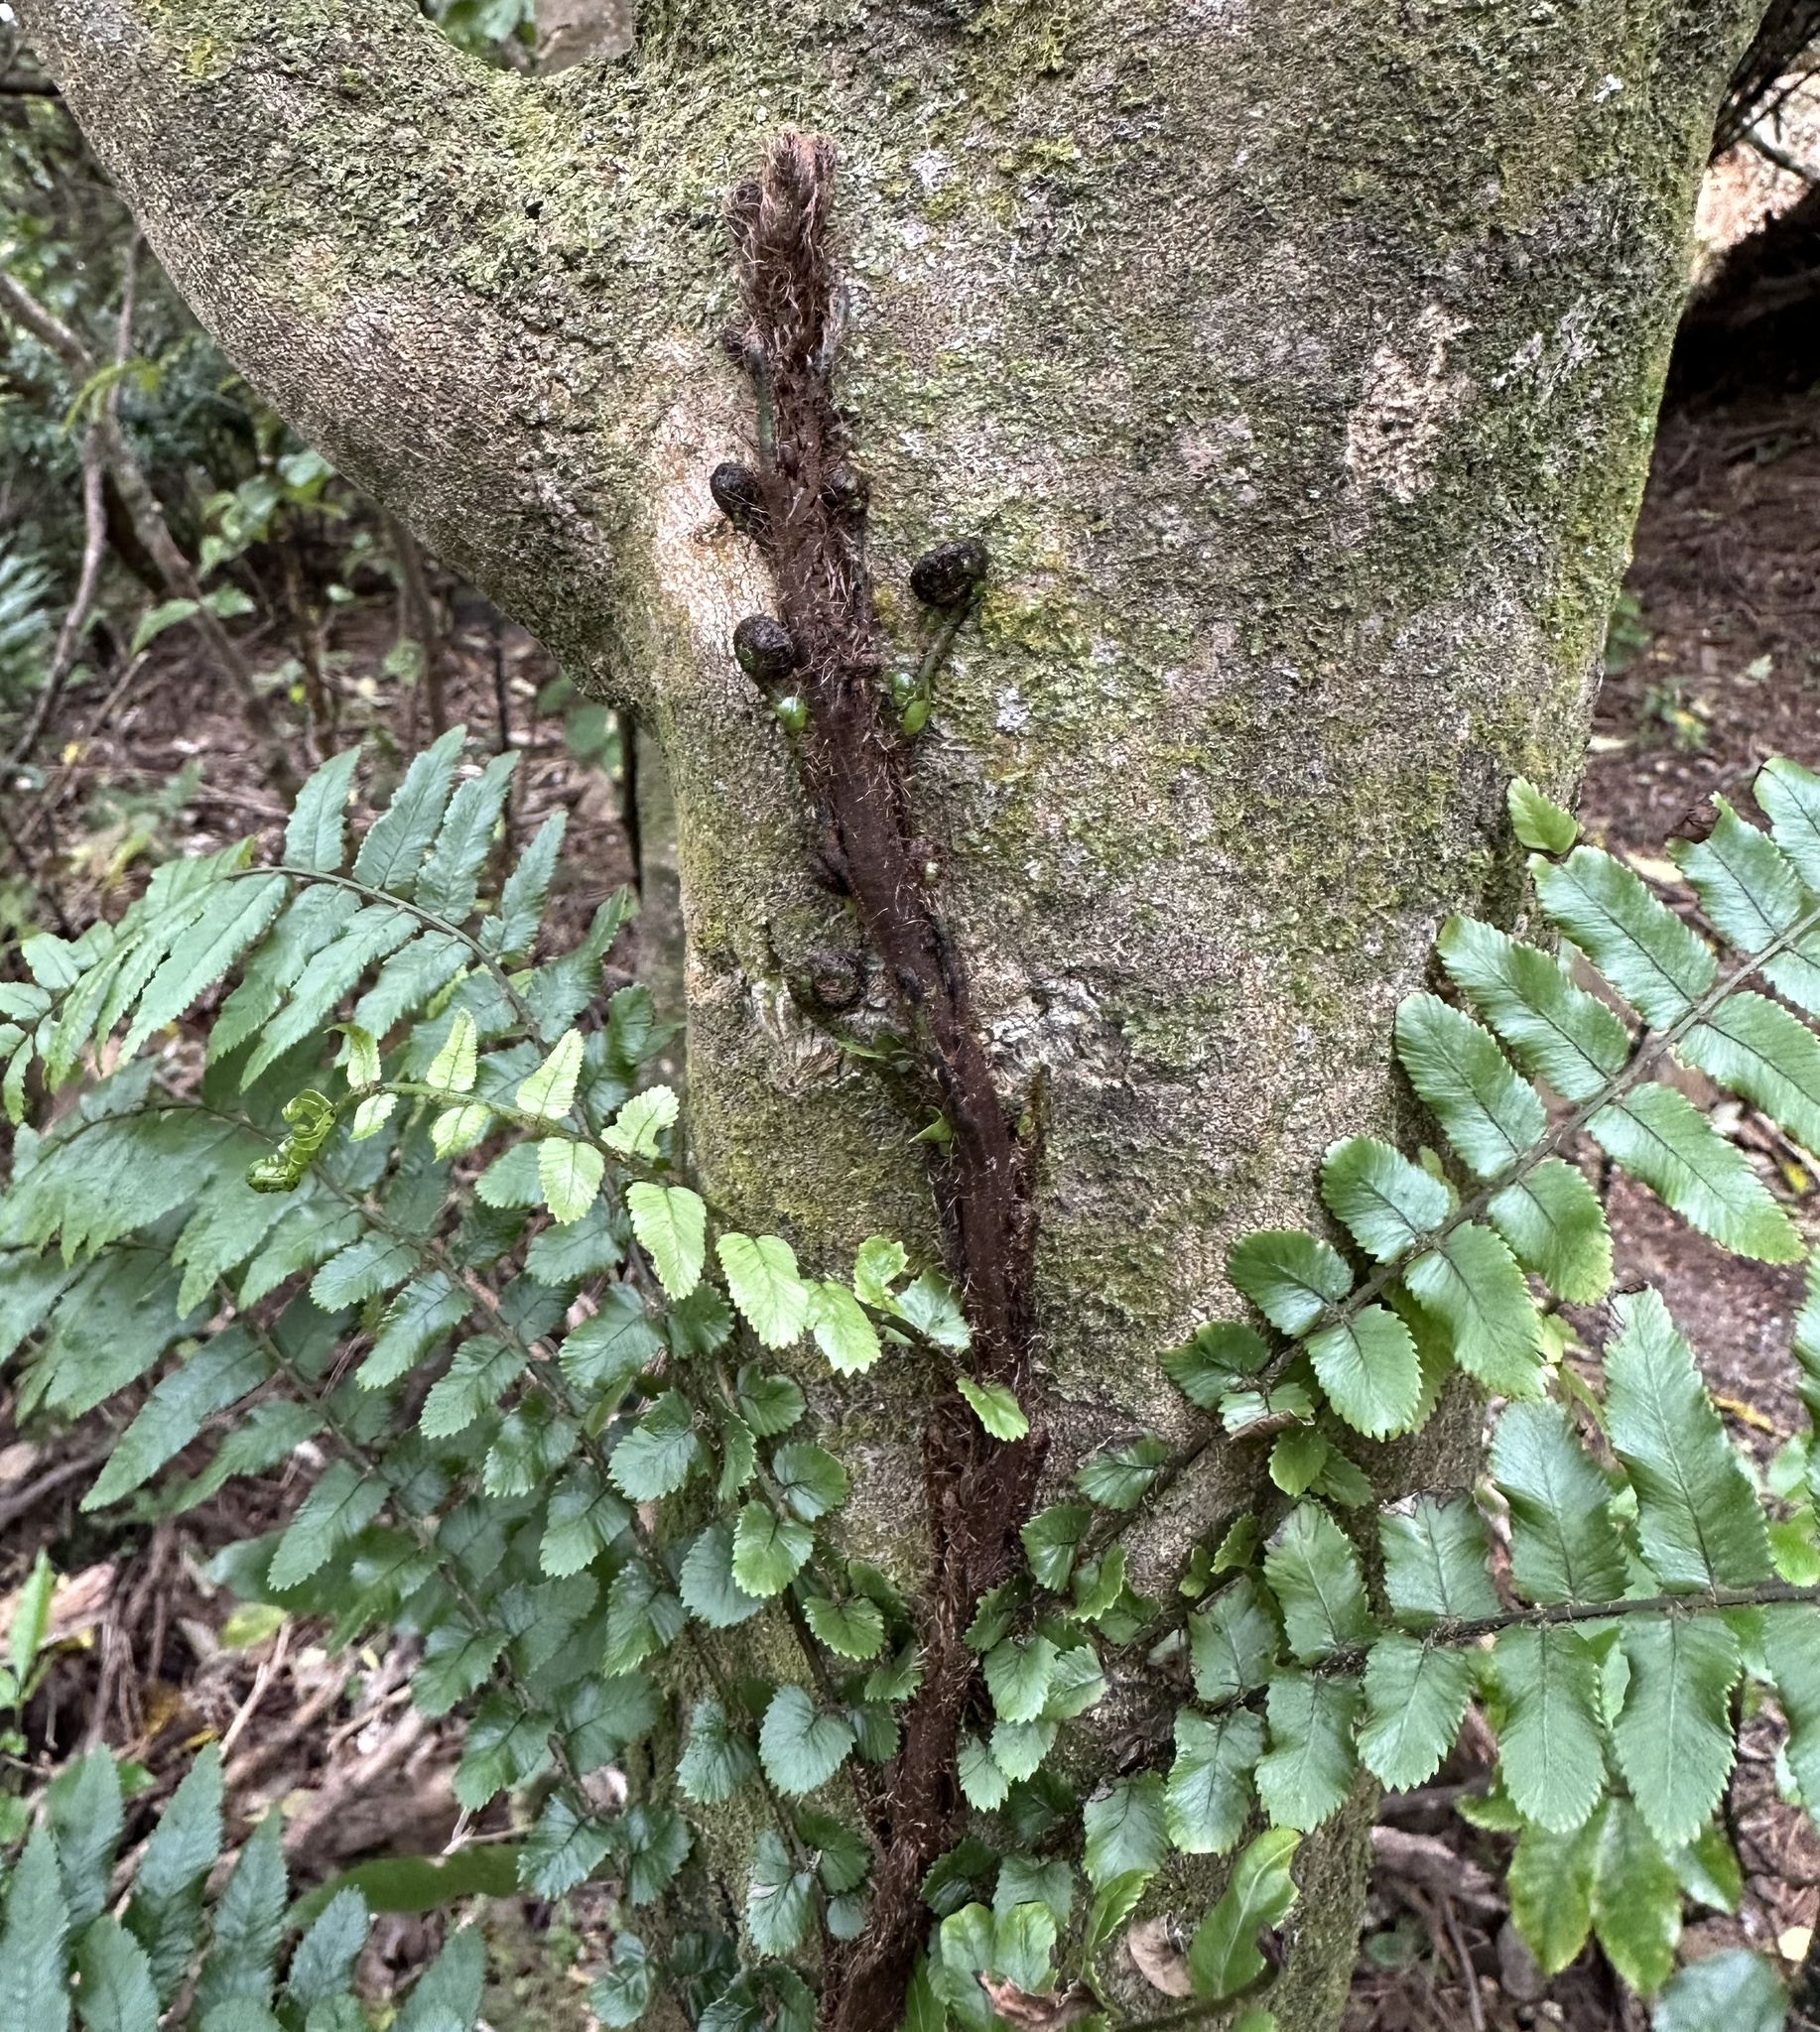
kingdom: Plantae
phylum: Tracheophyta
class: Polypodiopsida
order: Polypodiales
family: Blechnaceae
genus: Icarus
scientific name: Icarus filiformis
